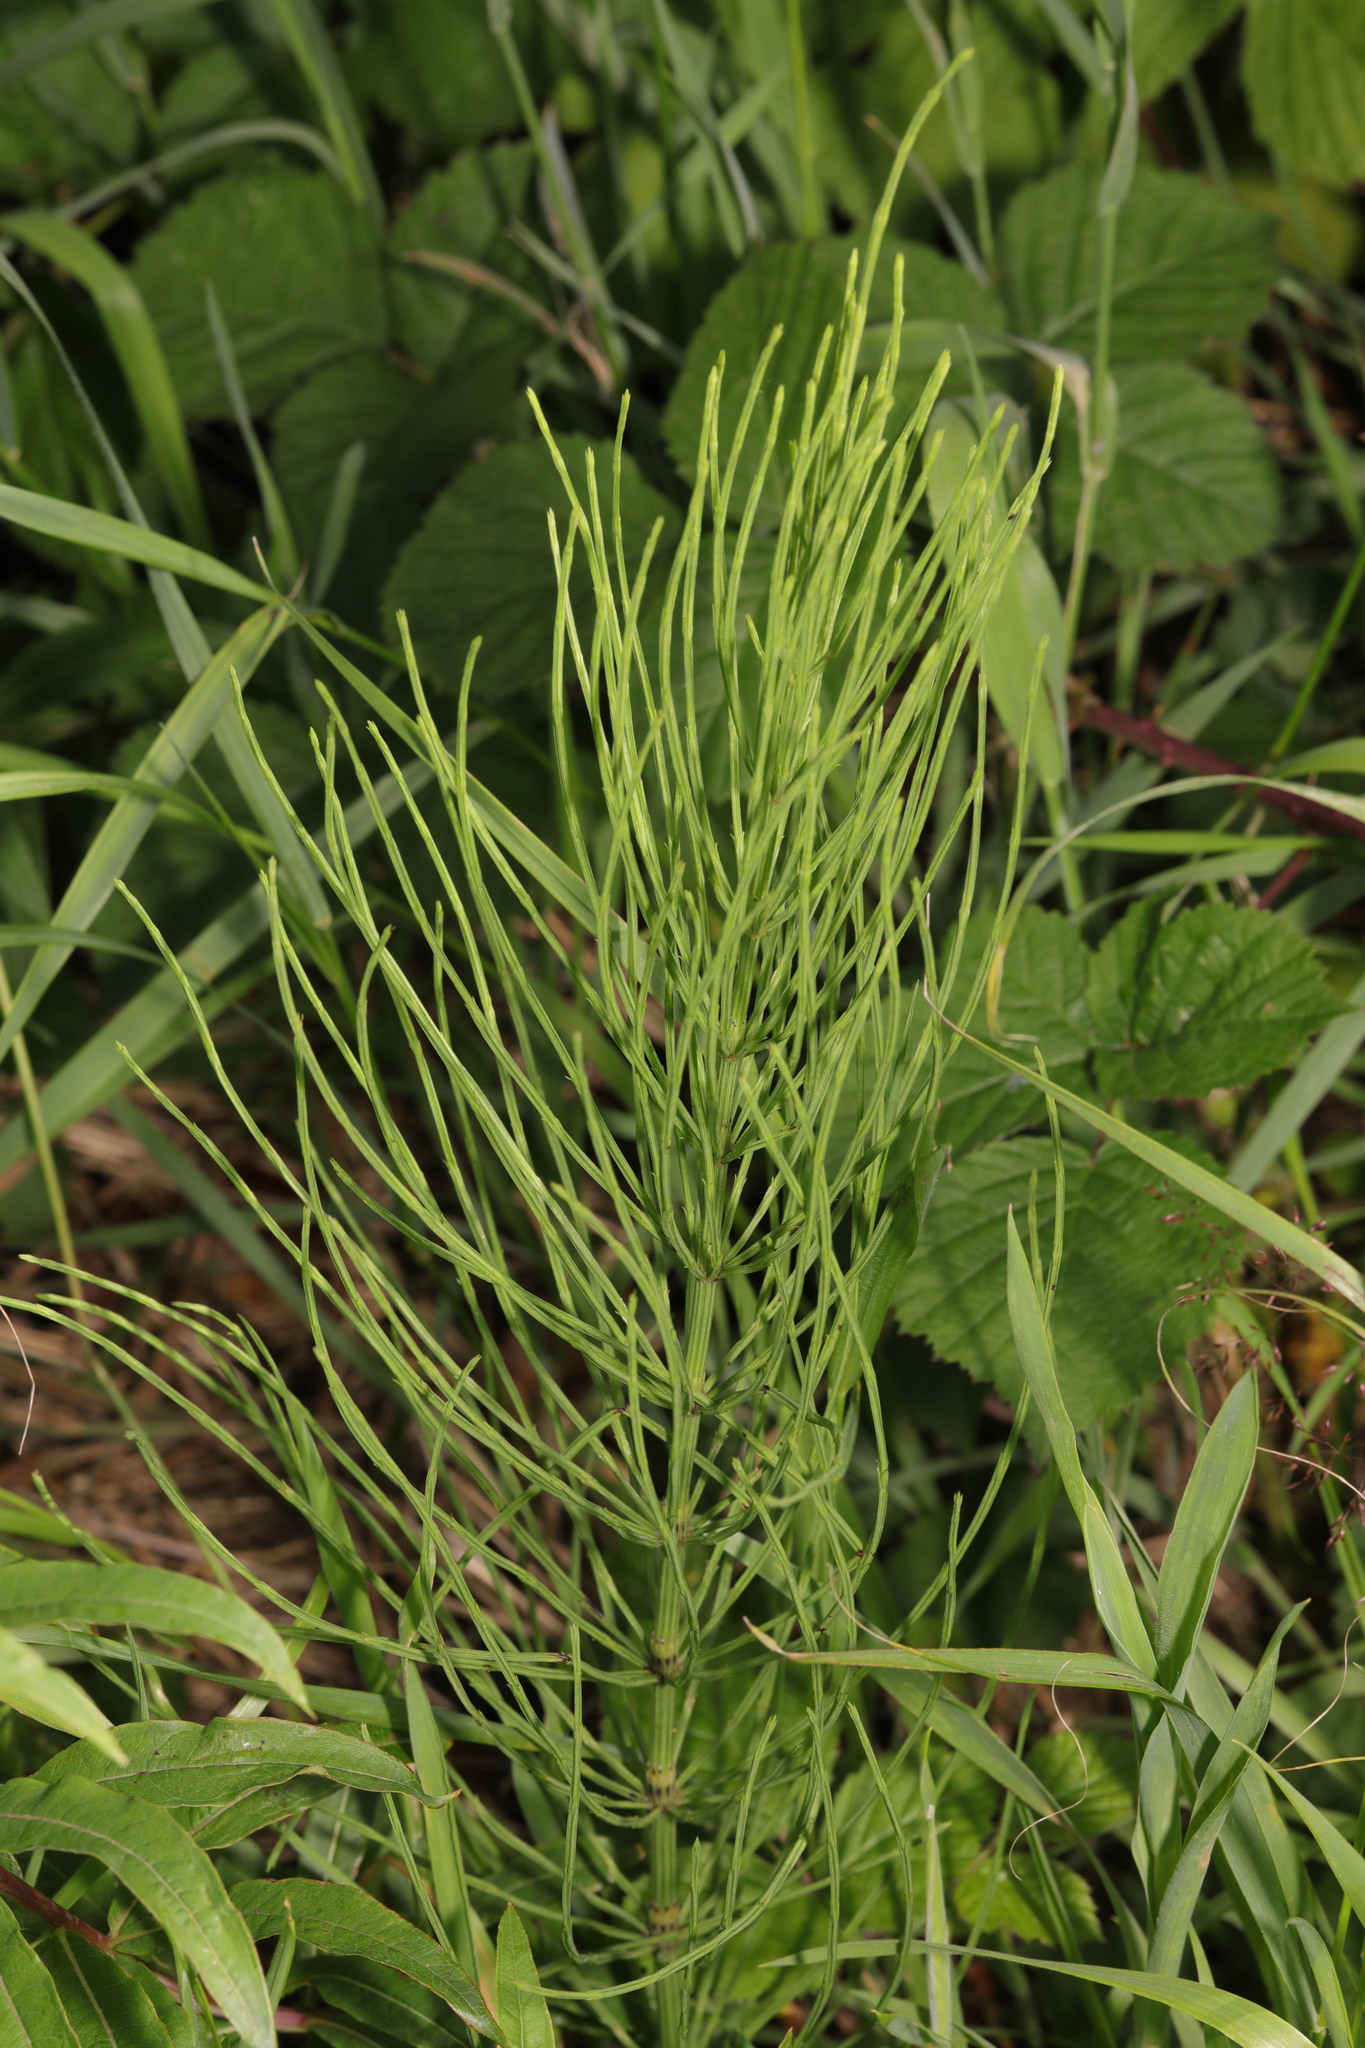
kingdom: Plantae
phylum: Tracheophyta
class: Polypodiopsida
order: Equisetales
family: Equisetaceae
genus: Equisetum
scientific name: Equisetum arvense
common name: Field horsetail
